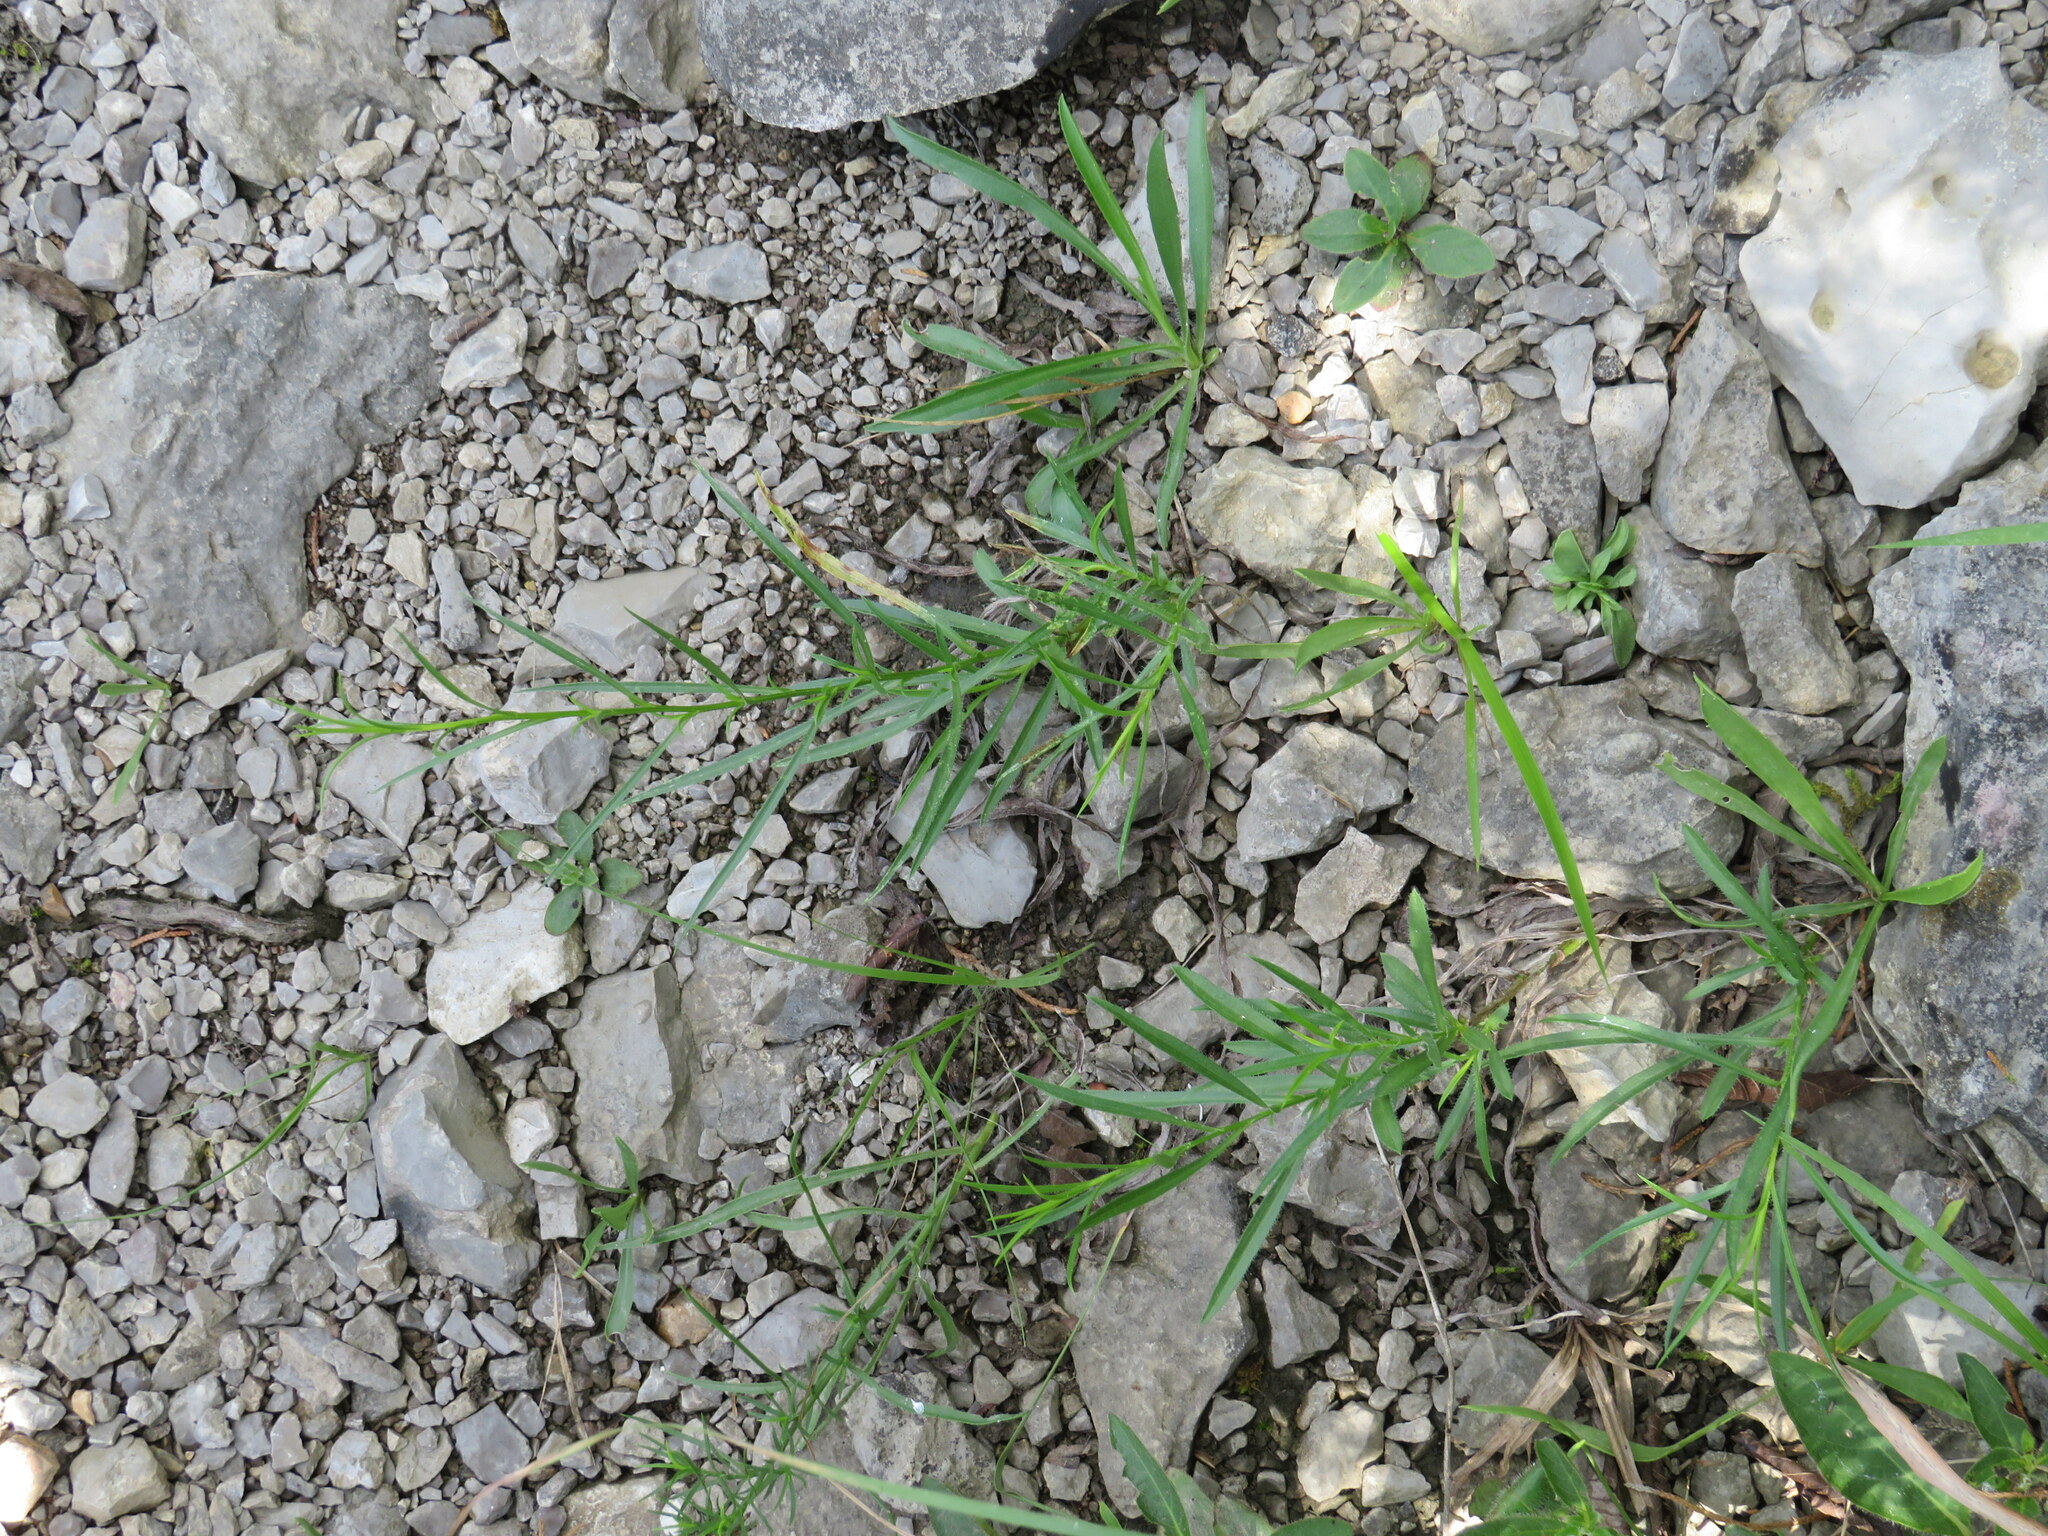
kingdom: Plantae
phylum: Tracheophyta
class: Magnoliopsida
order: Asterales
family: Asteraceae
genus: Symphyotrichum
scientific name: Symphyotrichum kentuckiense
